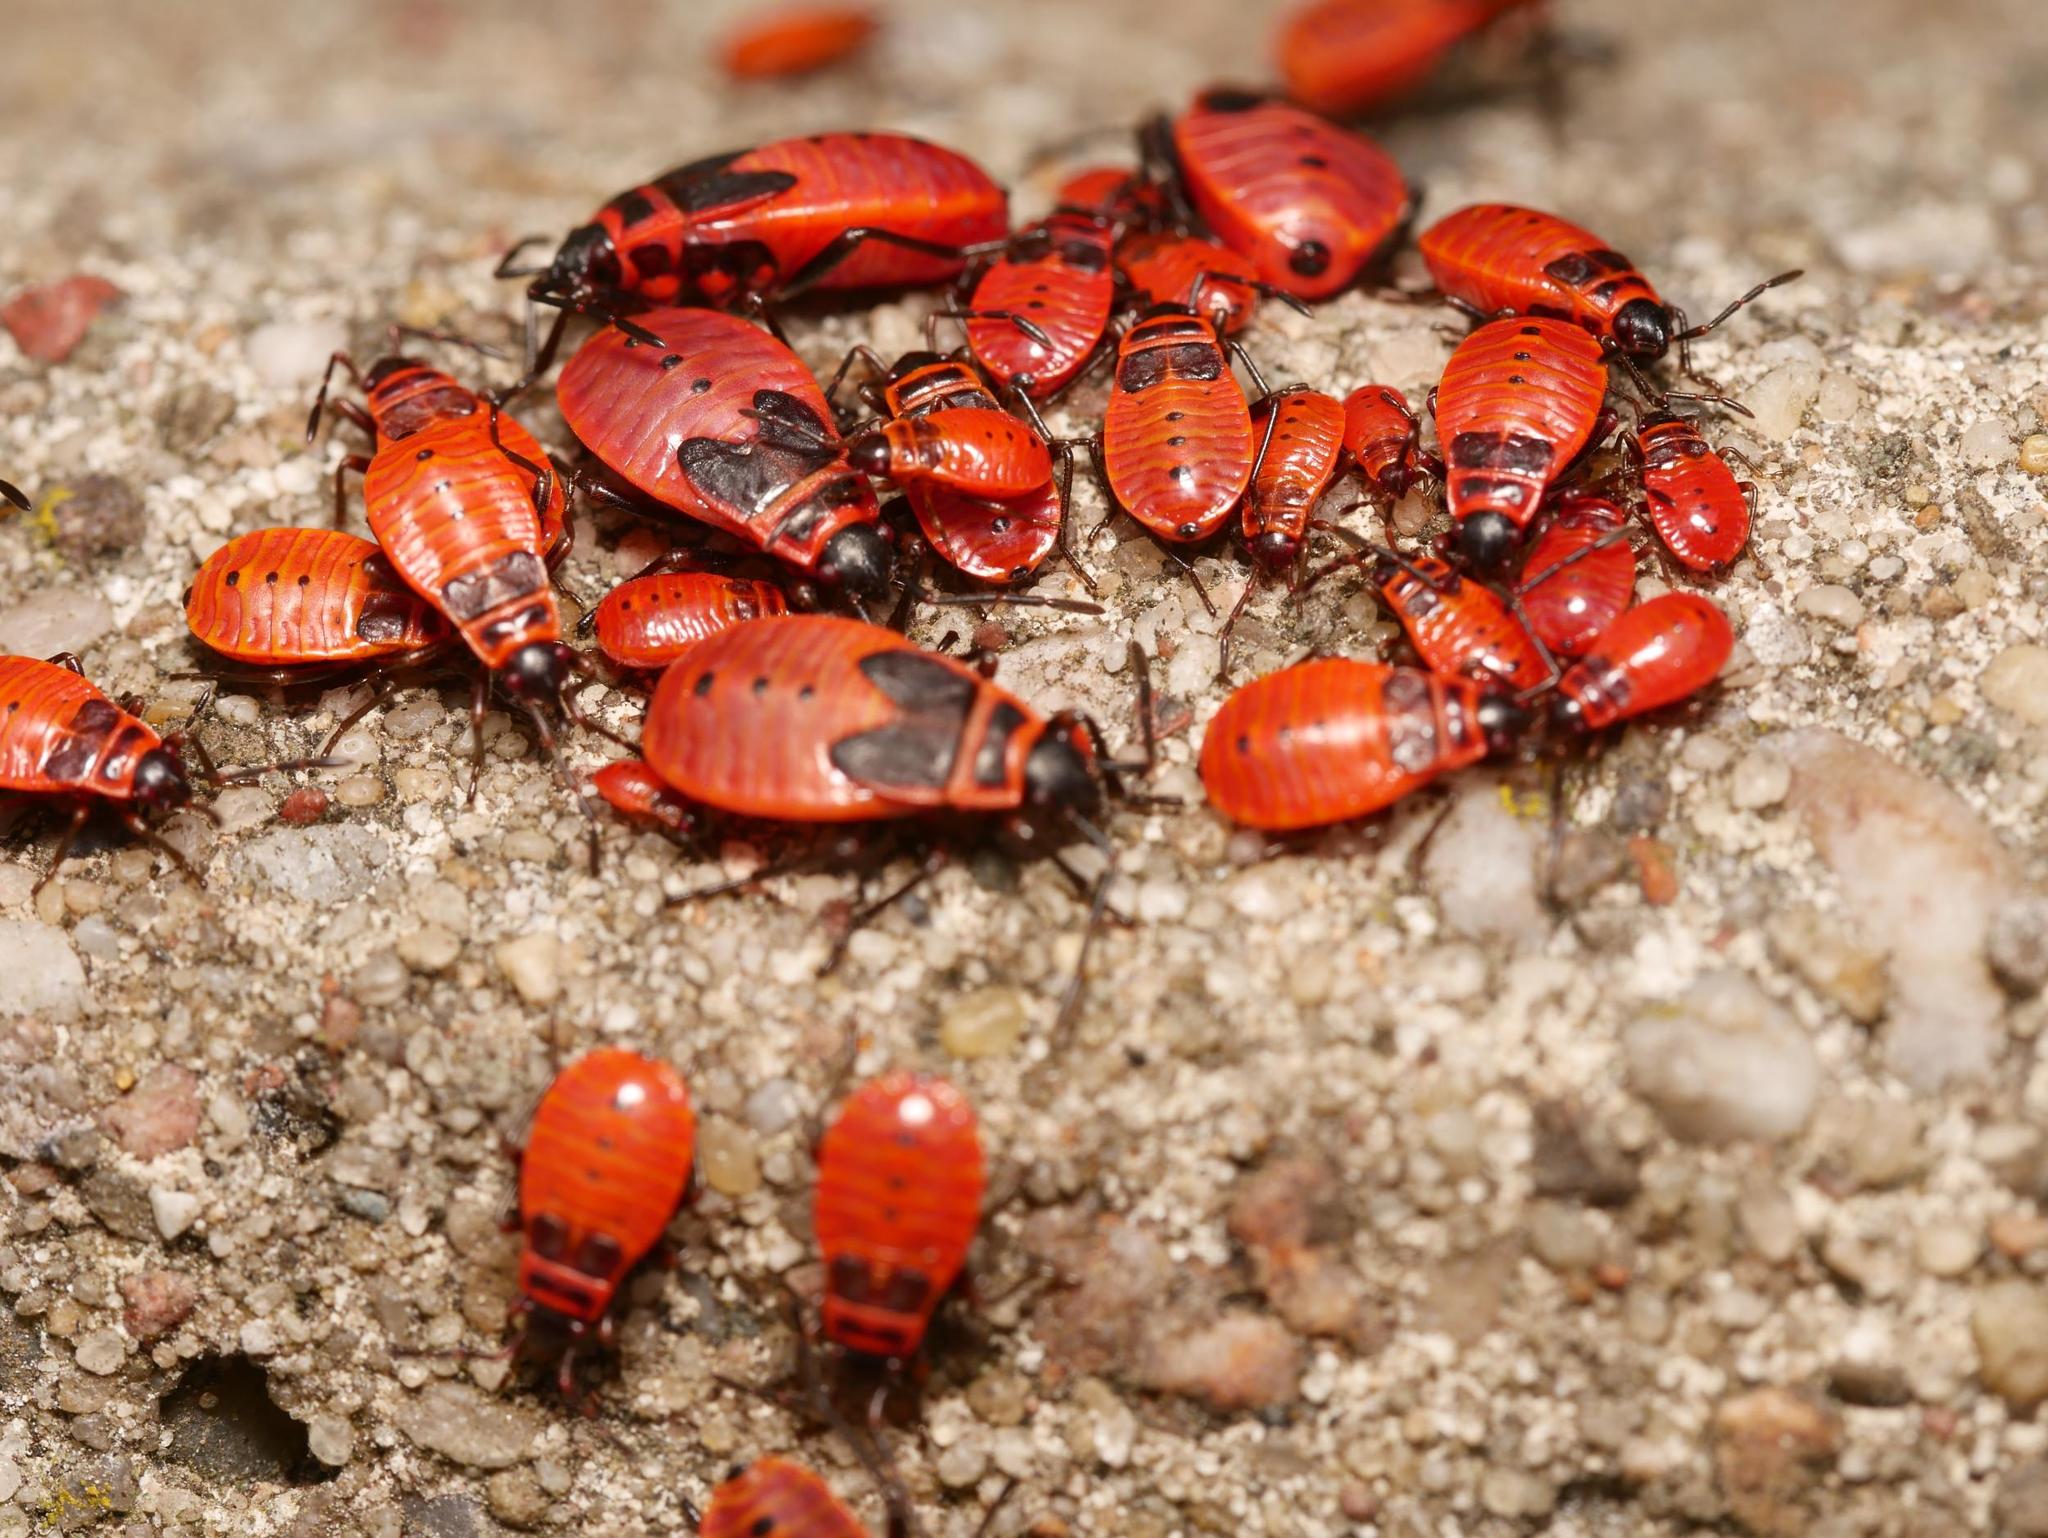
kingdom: Animalia
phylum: Arthropoda
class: Insecta
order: Hemiptera
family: Pyrrhocoridae
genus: Pyrrhocoris
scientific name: Pyrrhocoris apterus
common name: Firebug
